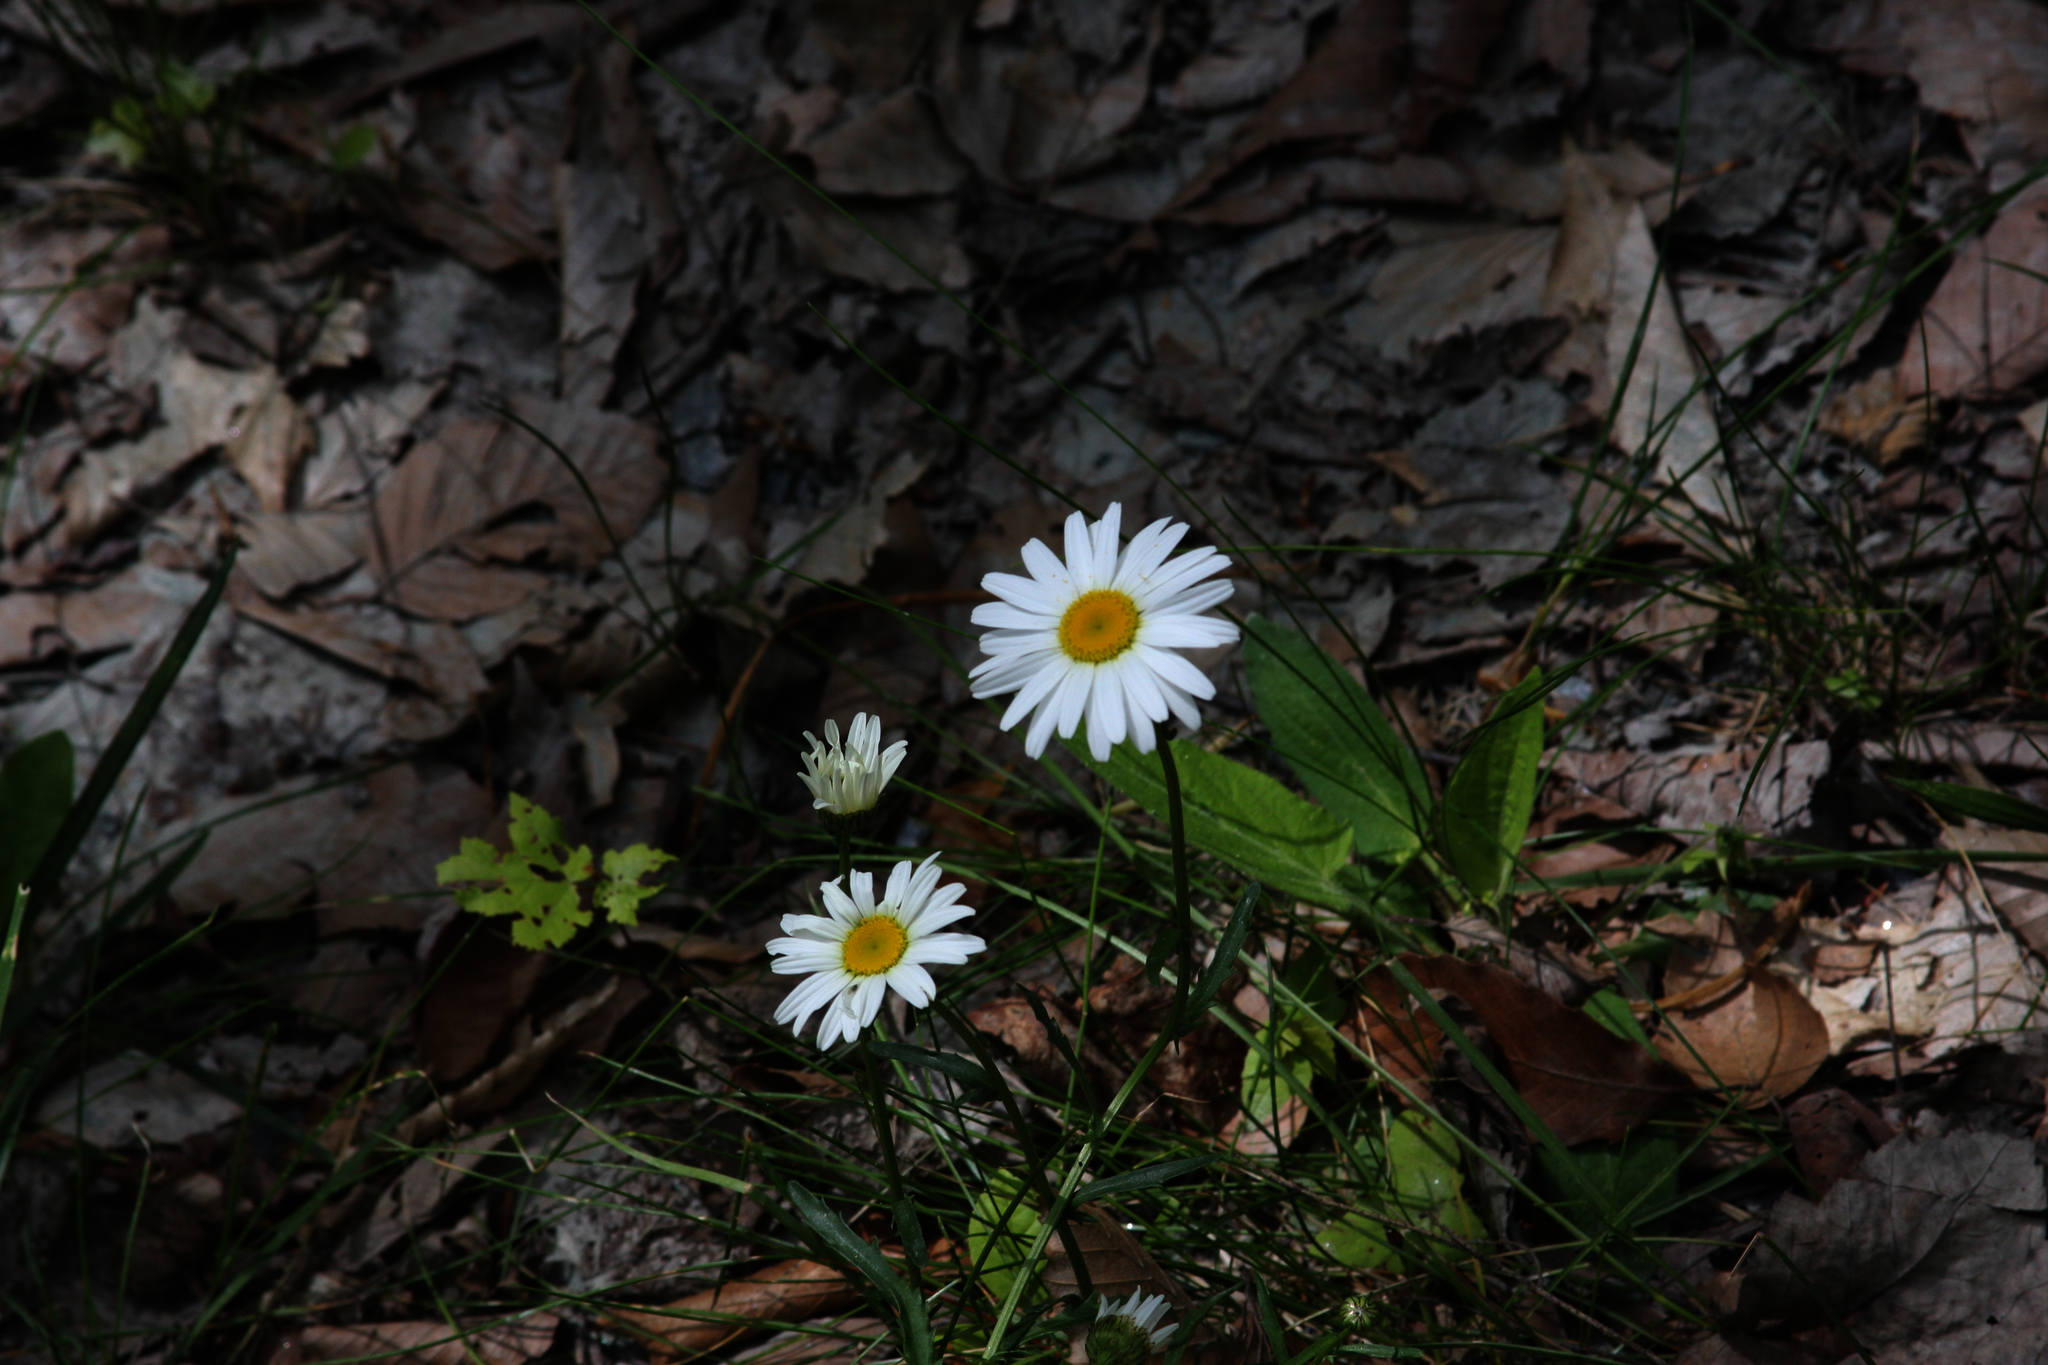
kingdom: Plantae
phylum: Tracheophyta
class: Magnoliopsida
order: Asterales
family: Asteraceae
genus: Leucanthemum
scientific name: Leucanthemum vulgare
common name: Oxeye daisy
